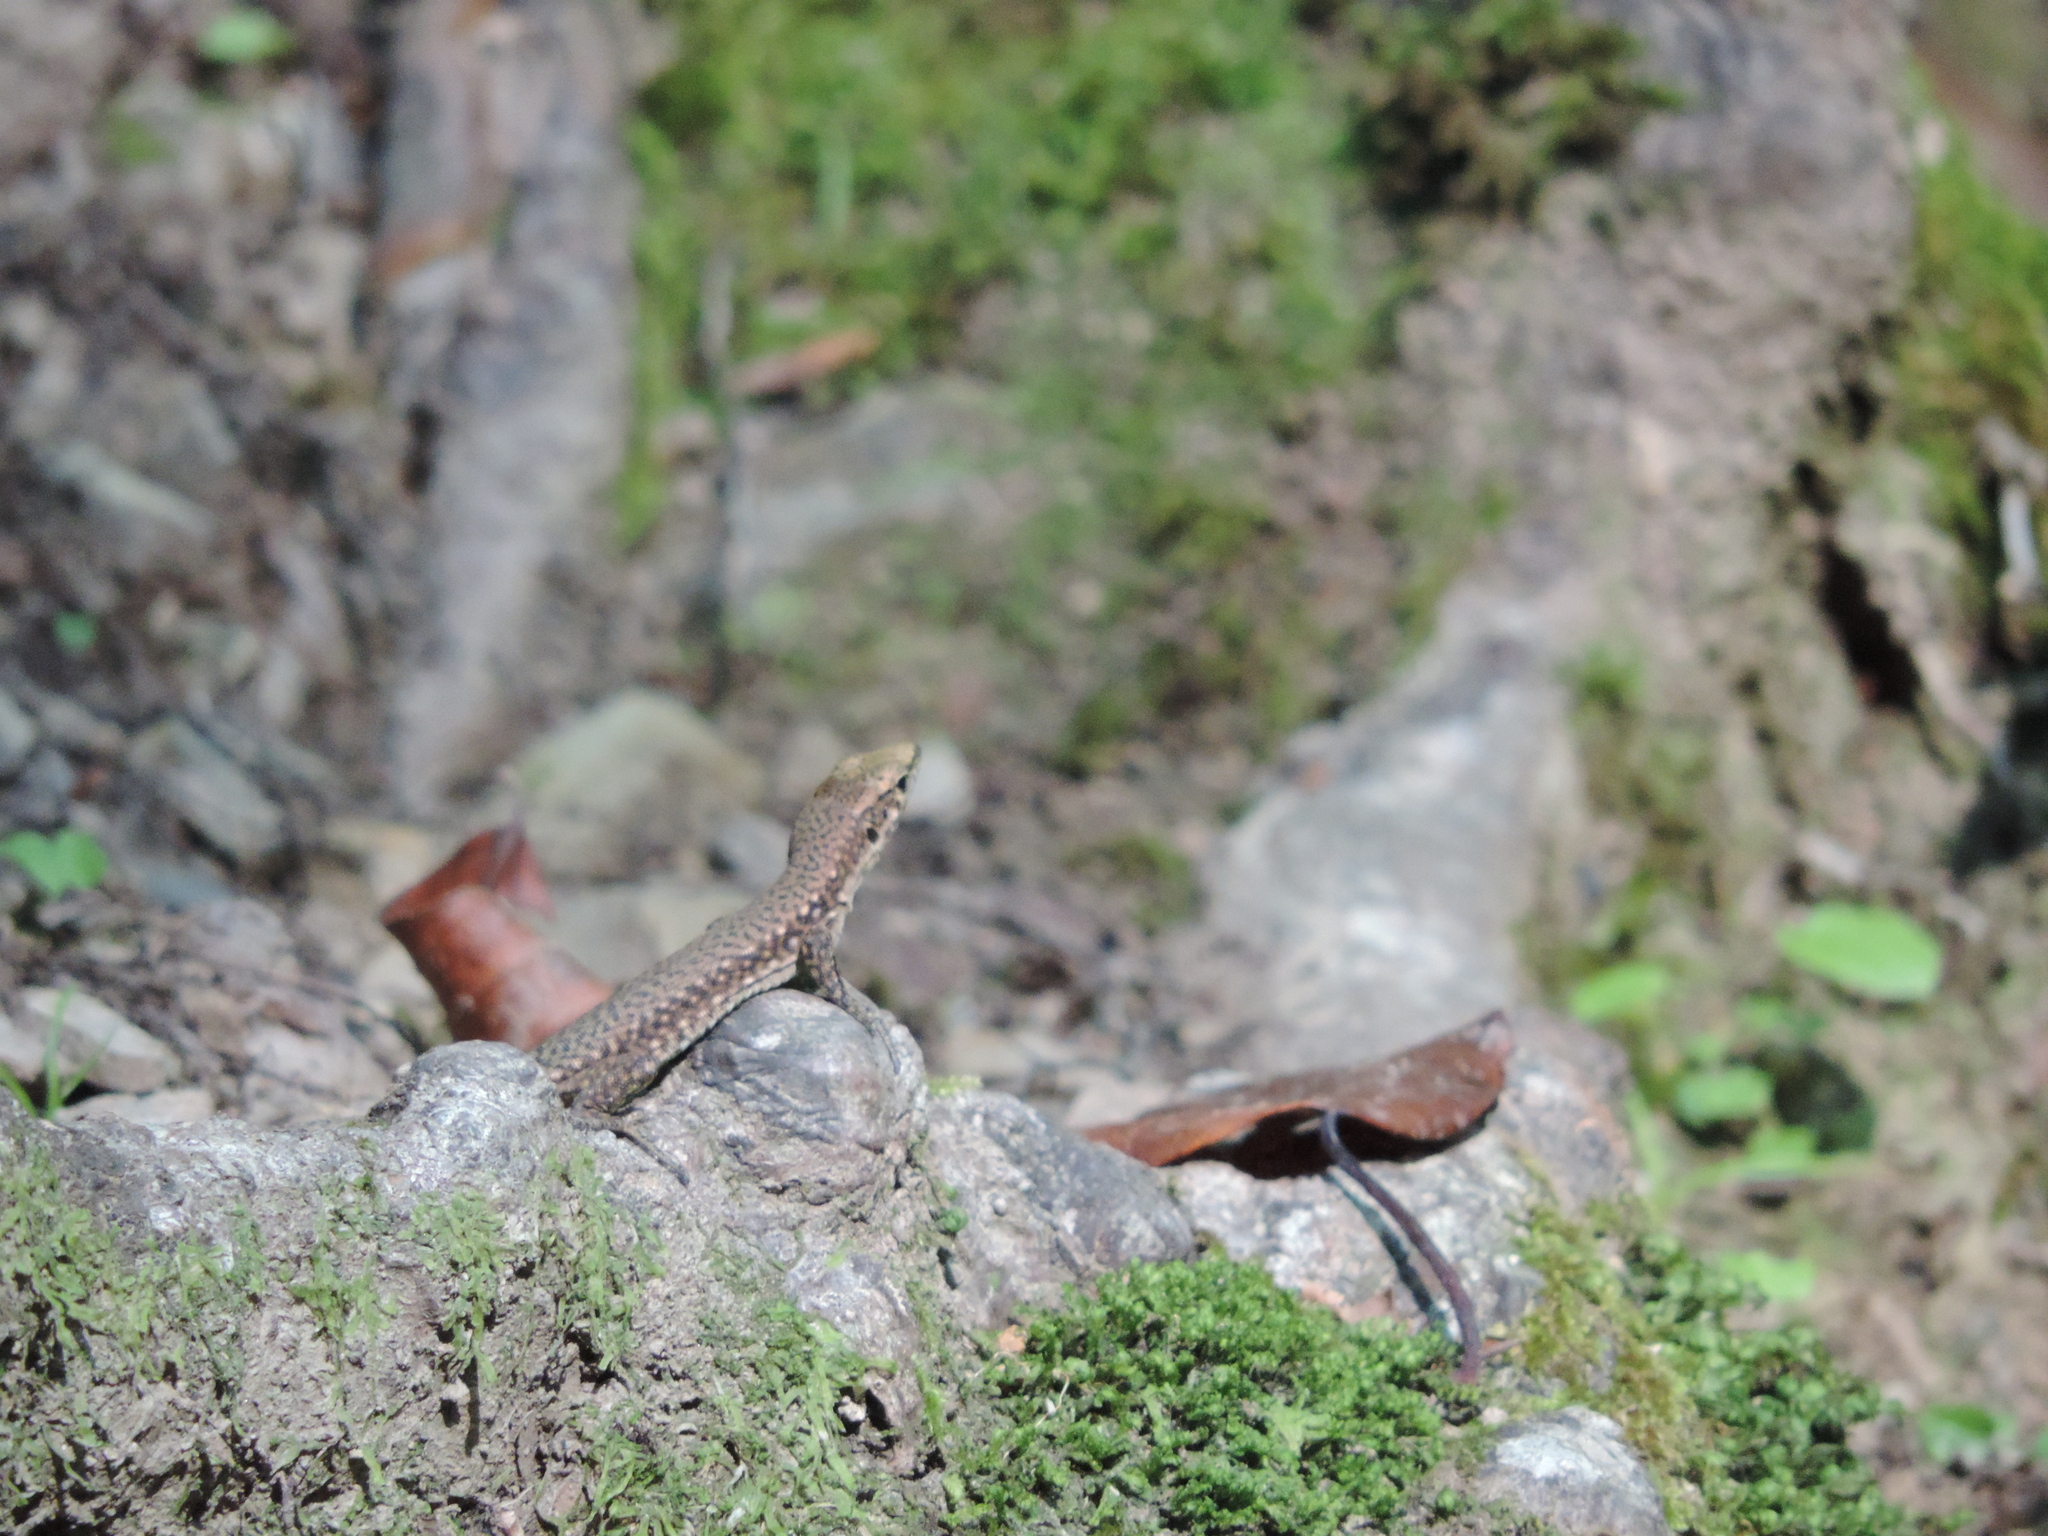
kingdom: Animalia
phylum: Chordata
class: Squamata
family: Lacertidae
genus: Darevskia
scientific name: Darevskia brauneri
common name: Brauner's rock lizard
